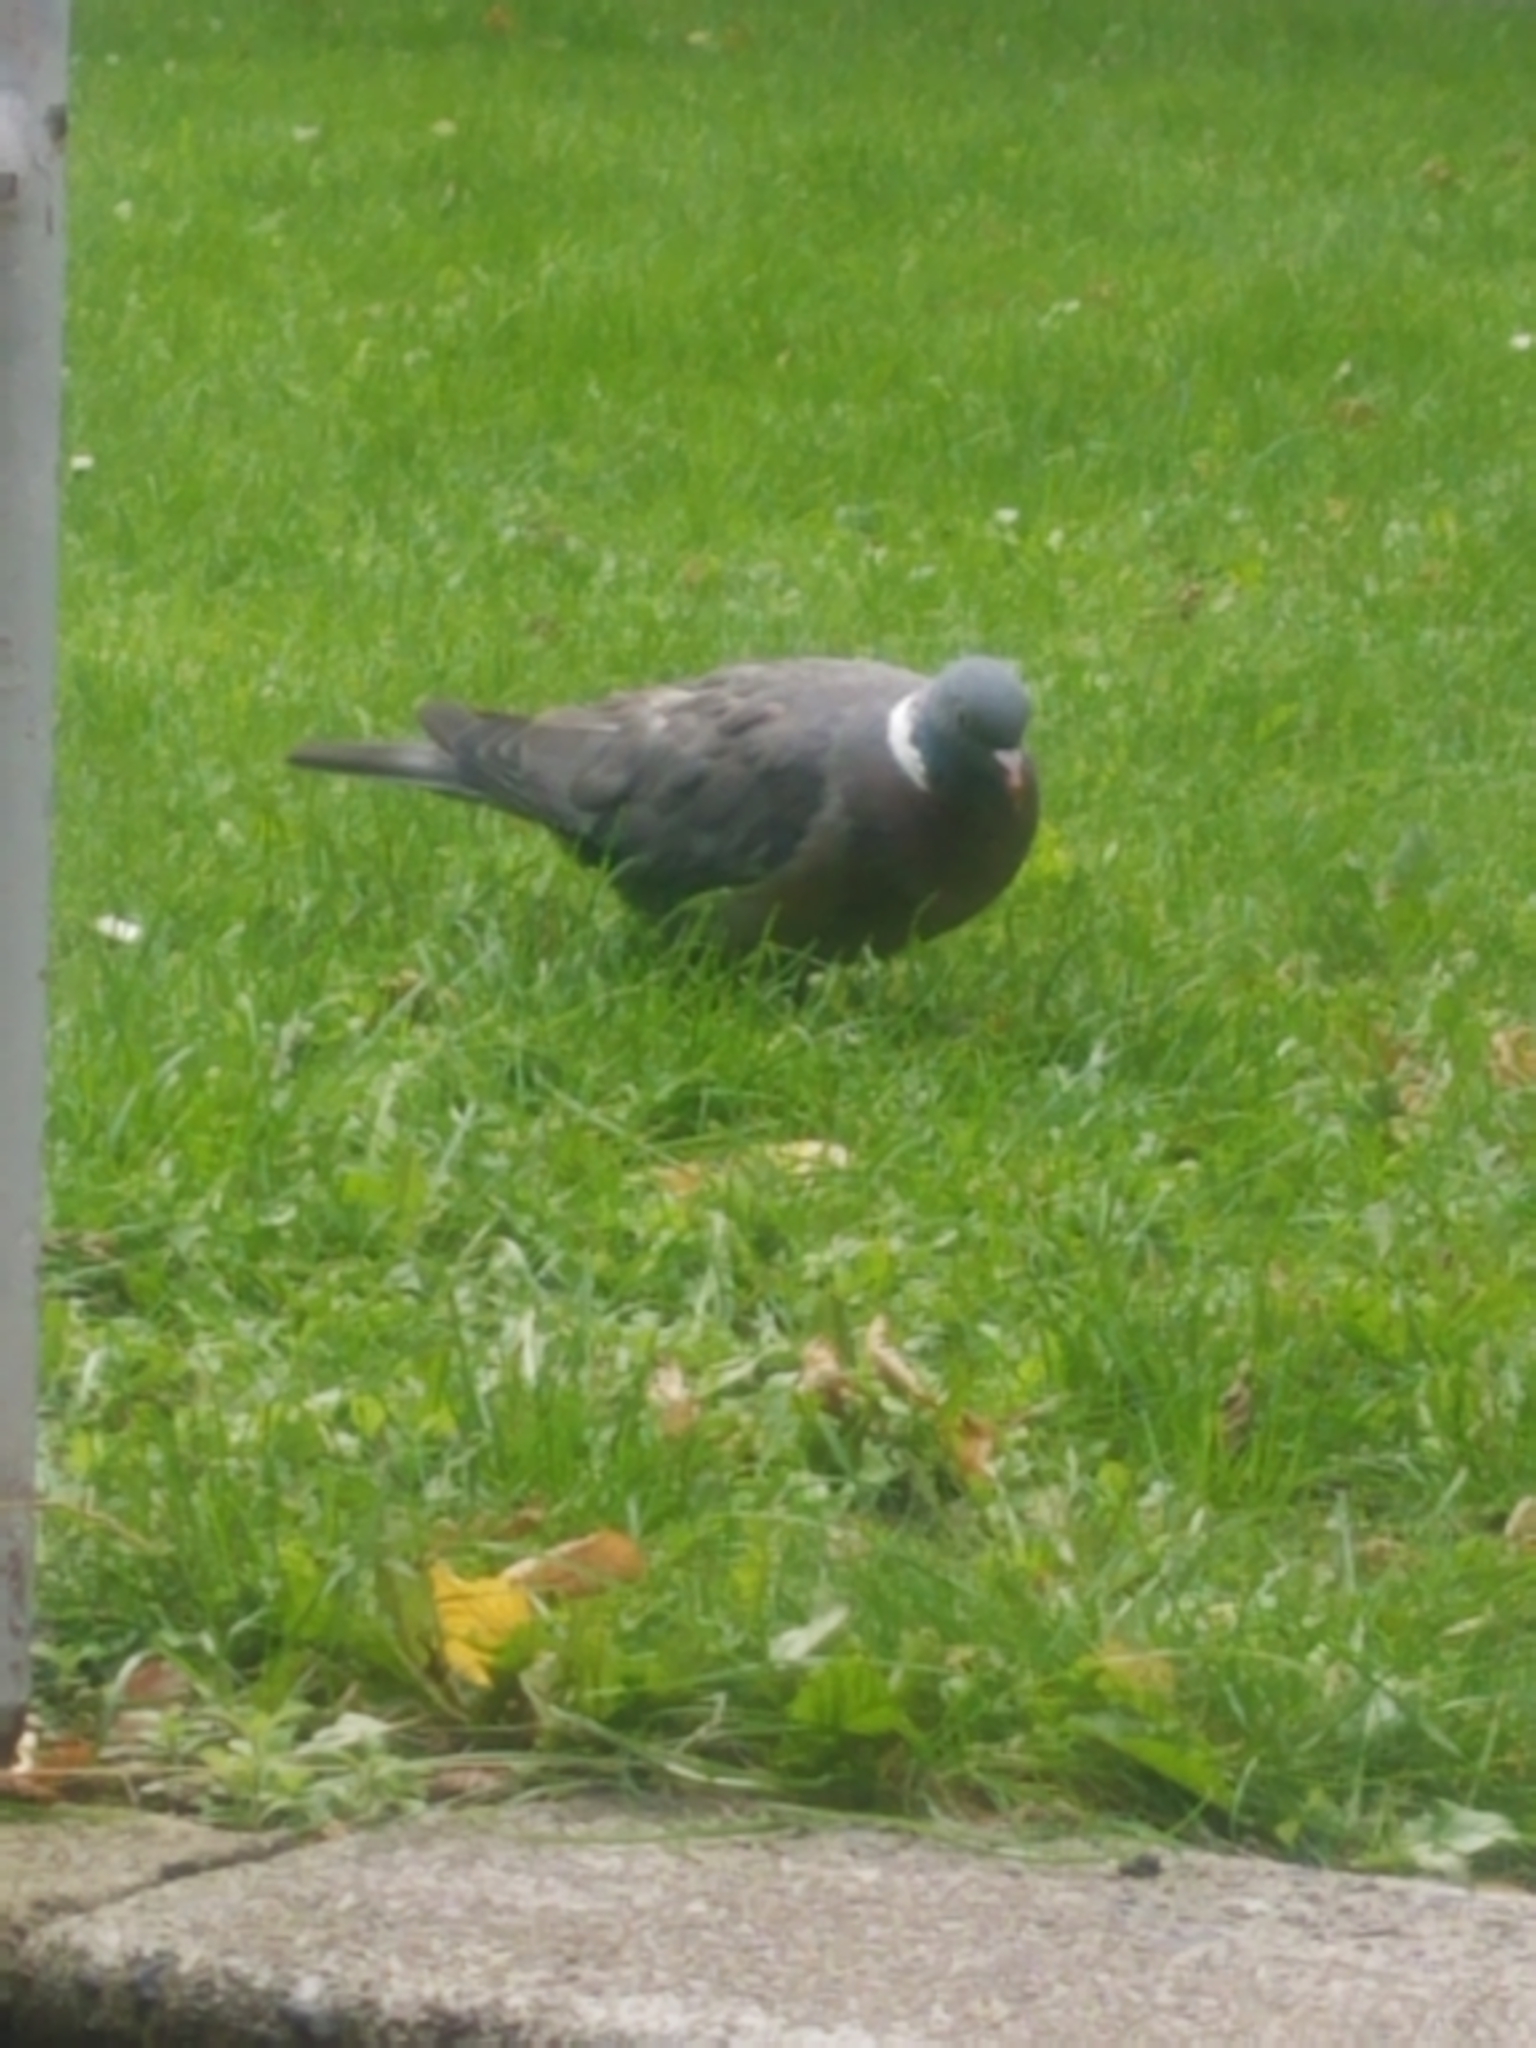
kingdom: Animalia
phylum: Chordata
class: Aves
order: Columbiformes
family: Columbidae
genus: Columba
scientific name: Columba palumbus
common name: Common wood pigeon
